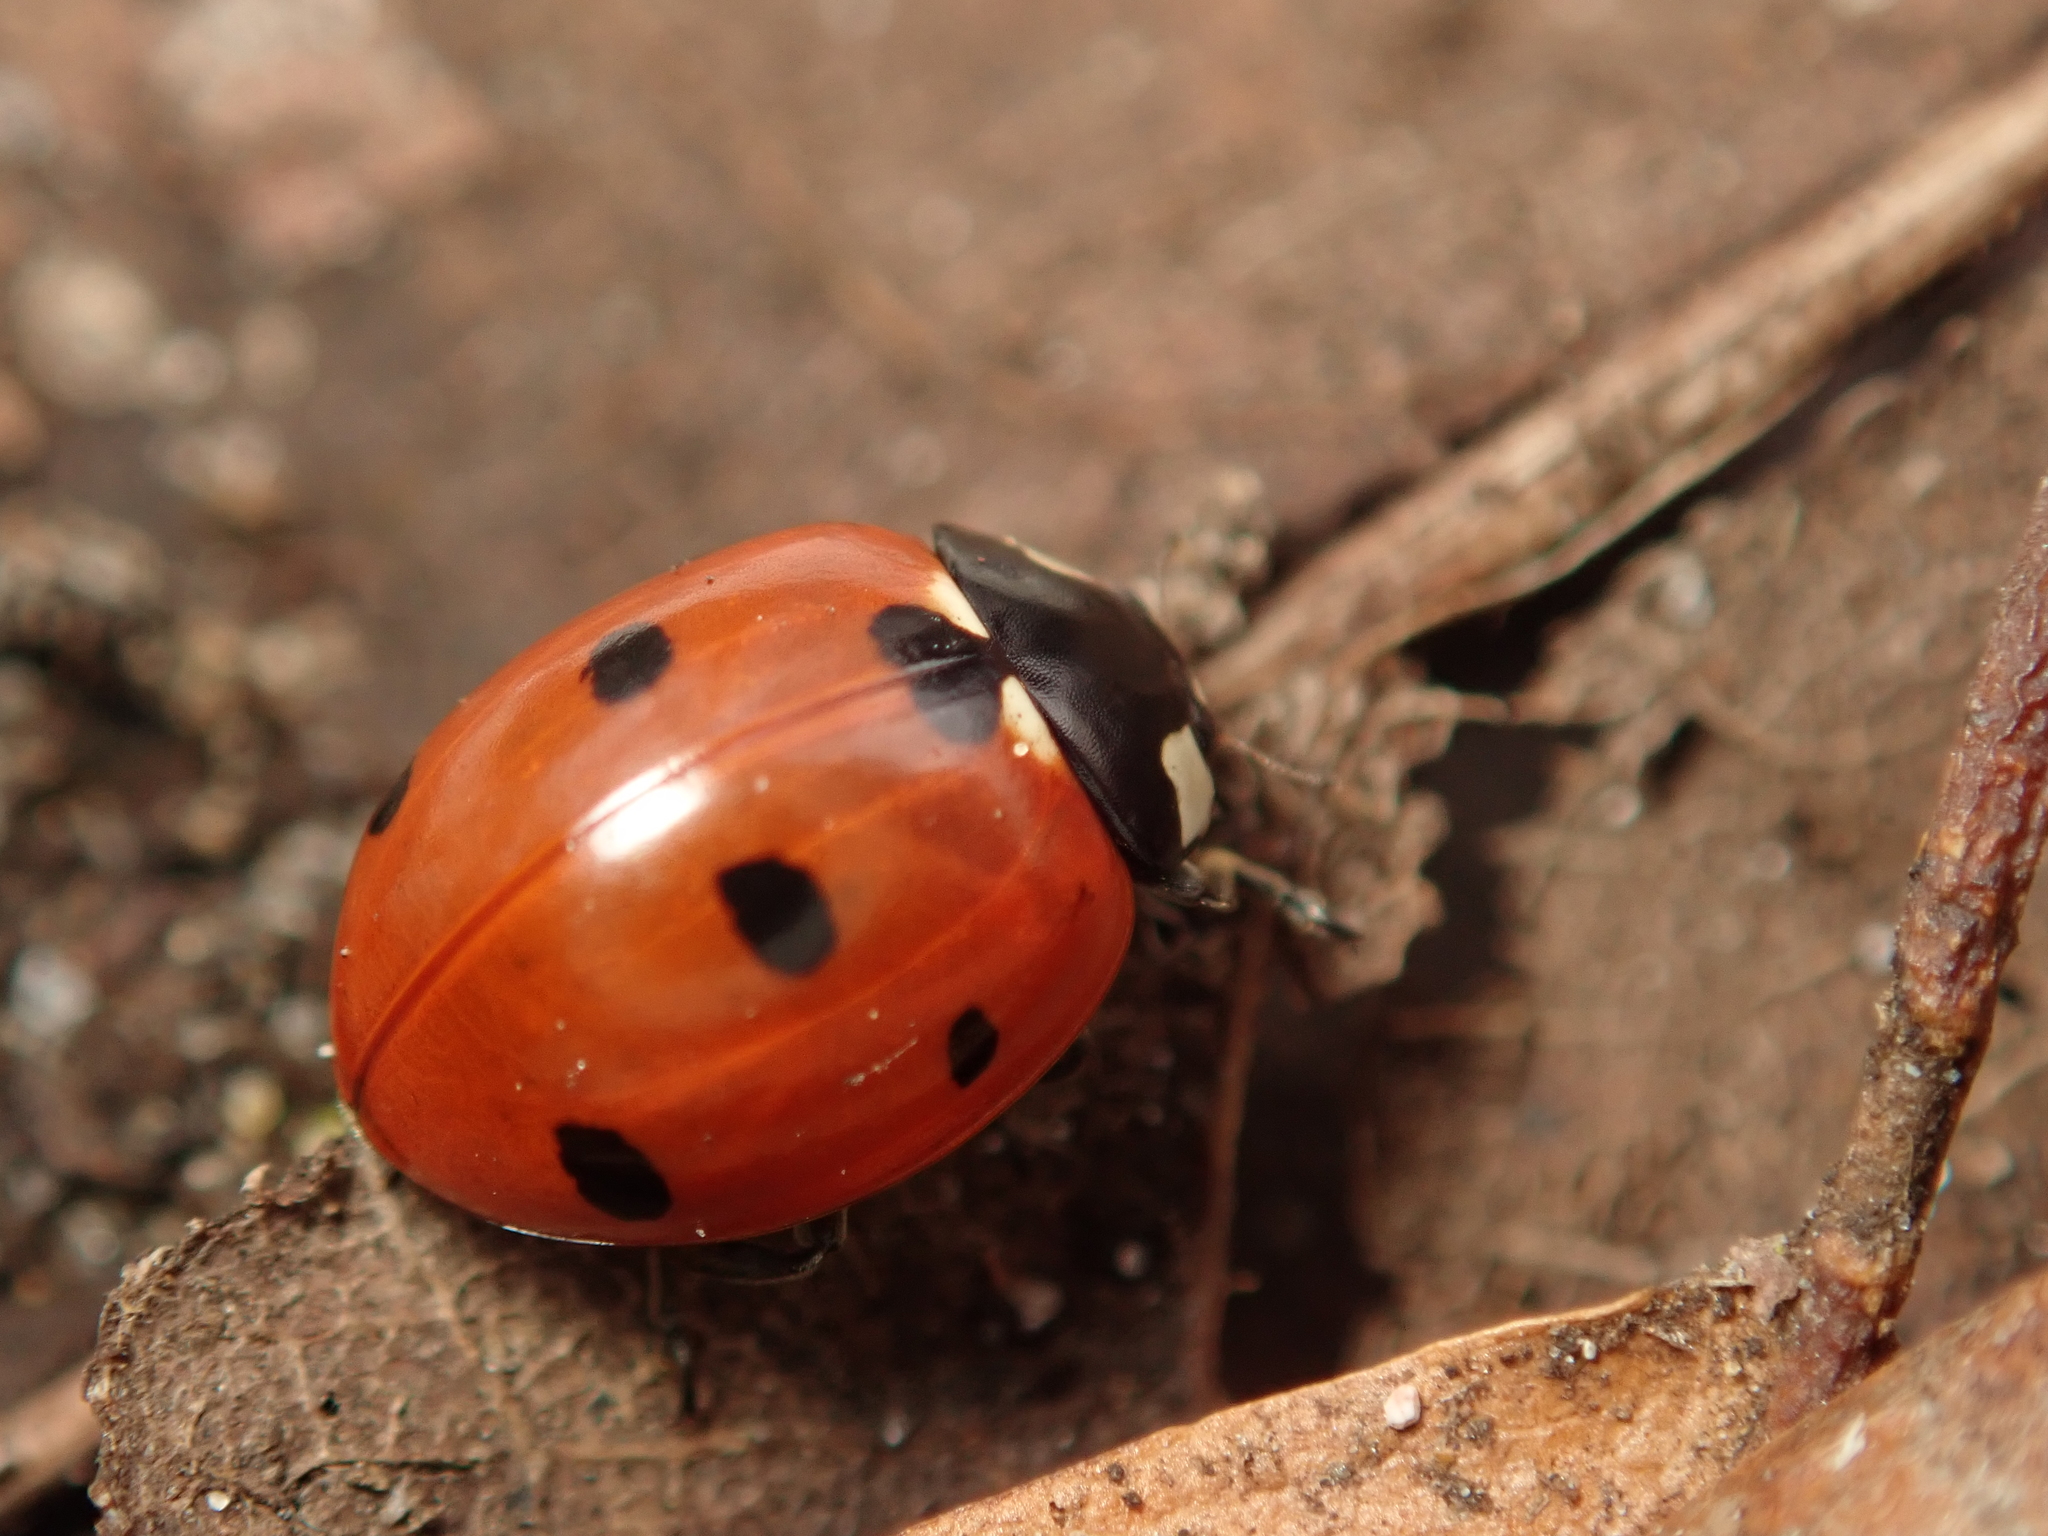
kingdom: Animalia
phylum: Arthropoda
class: Insecta
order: Coleoptera
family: Coccinellidae
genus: Coccinella
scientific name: Coccinella septempunctata
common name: Sevenspotted lady beetle
